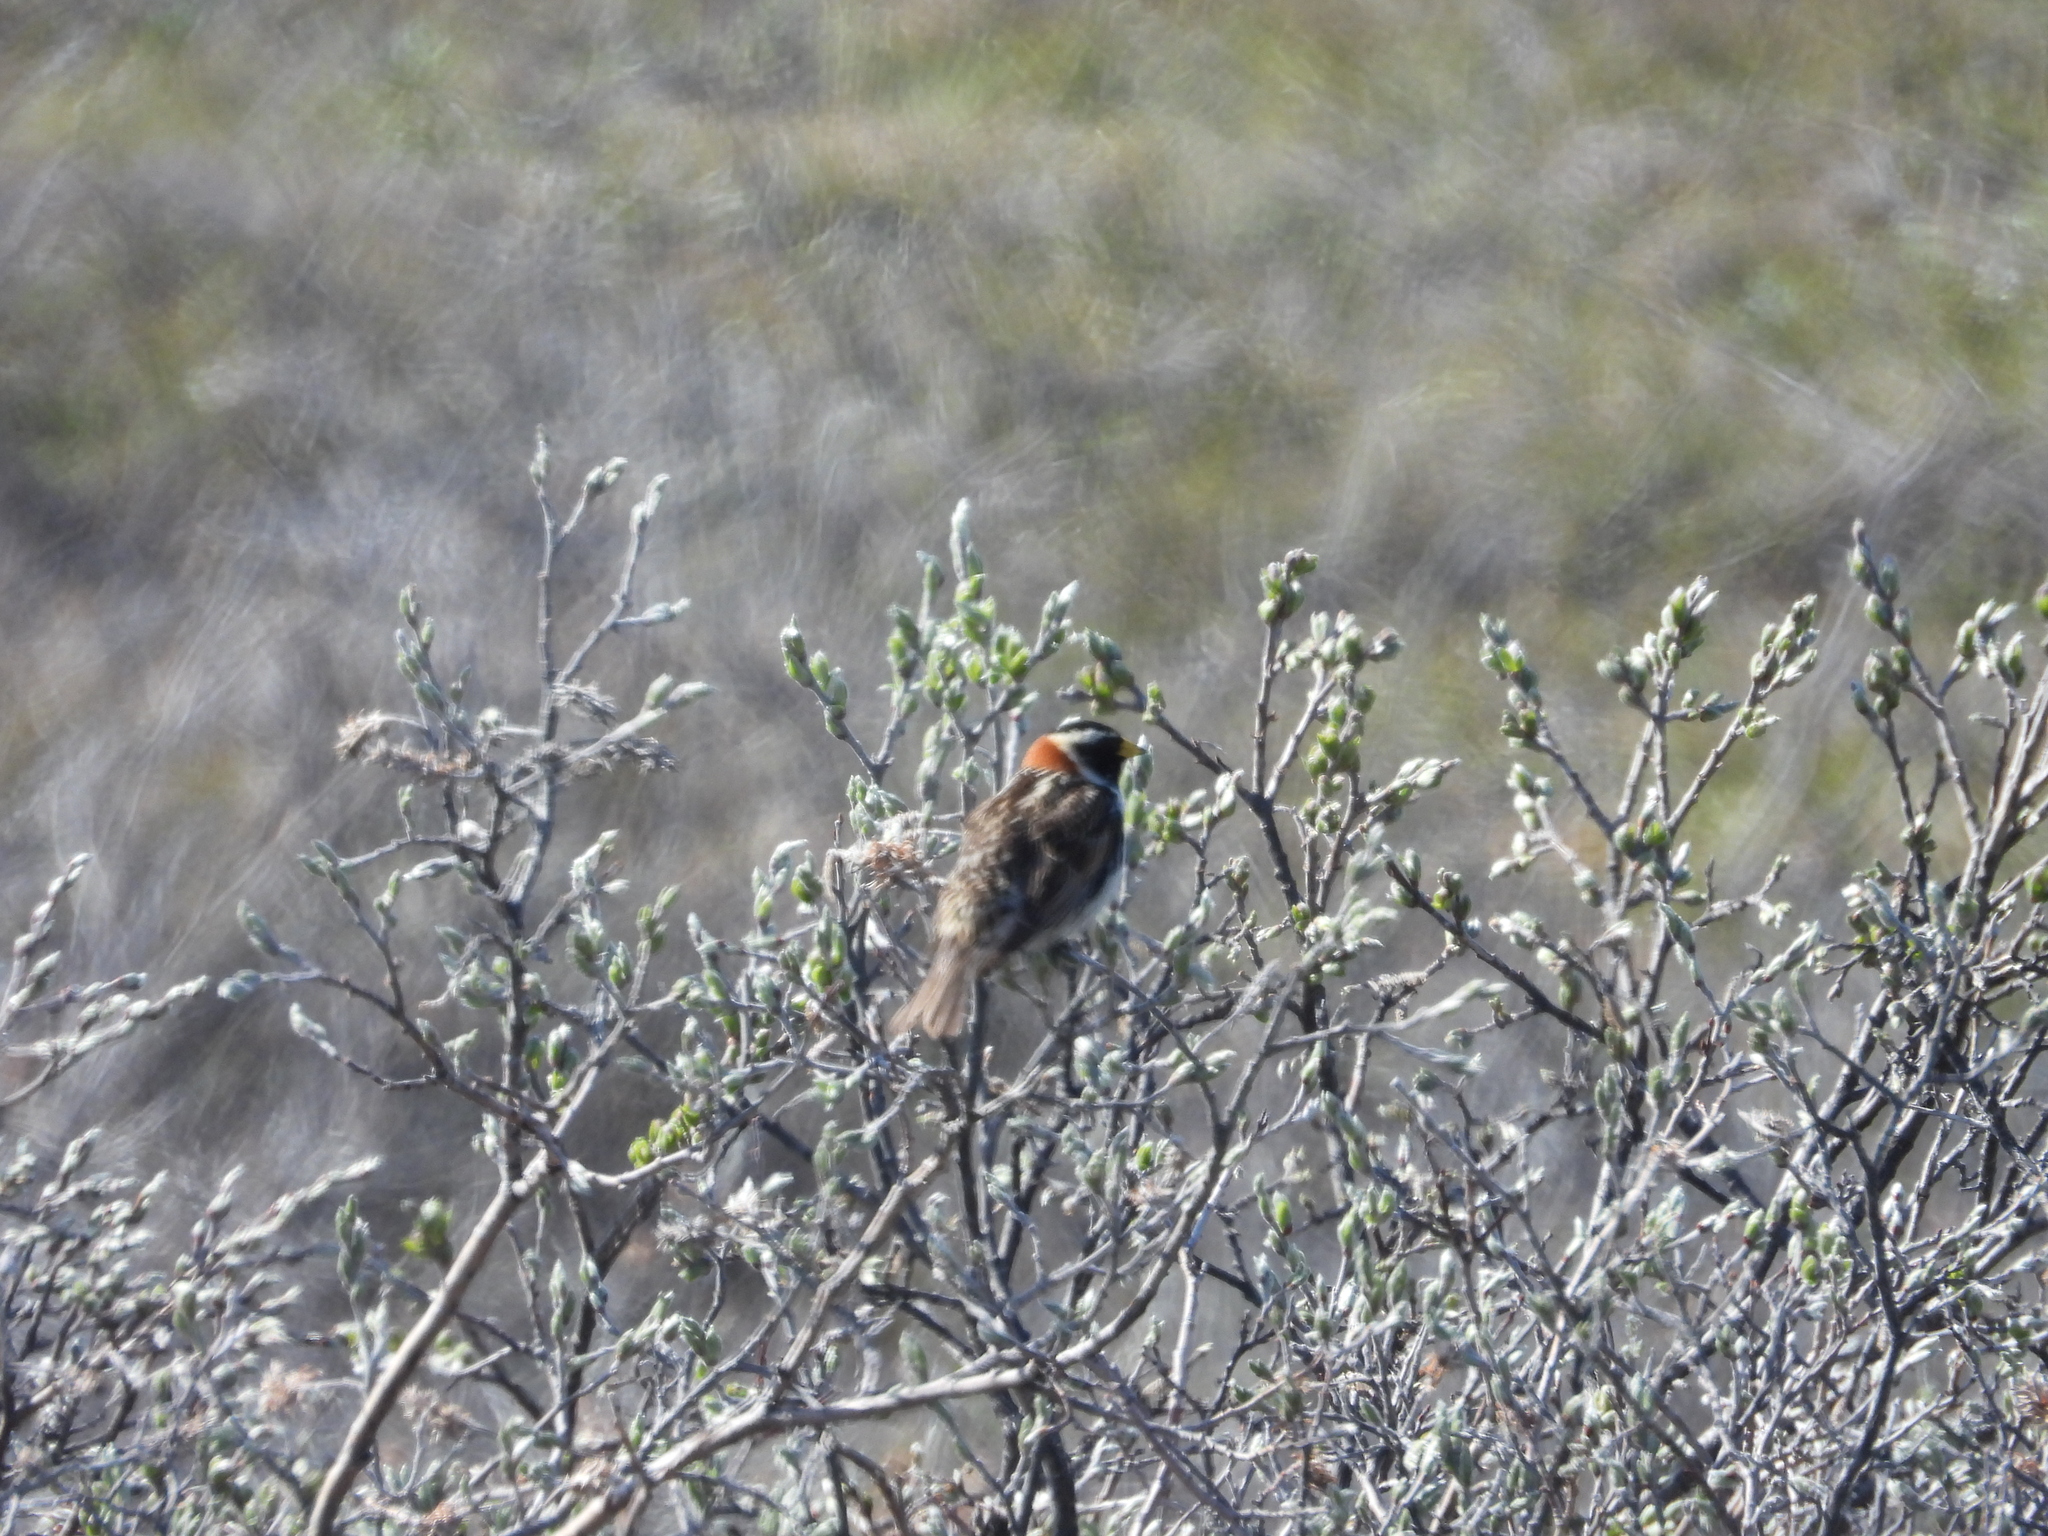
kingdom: Animalia
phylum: Chordata
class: Aves
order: Passeriformes
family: Calcariidae
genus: Calcarius
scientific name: Calcarius lapponicus
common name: Lapland longspur
